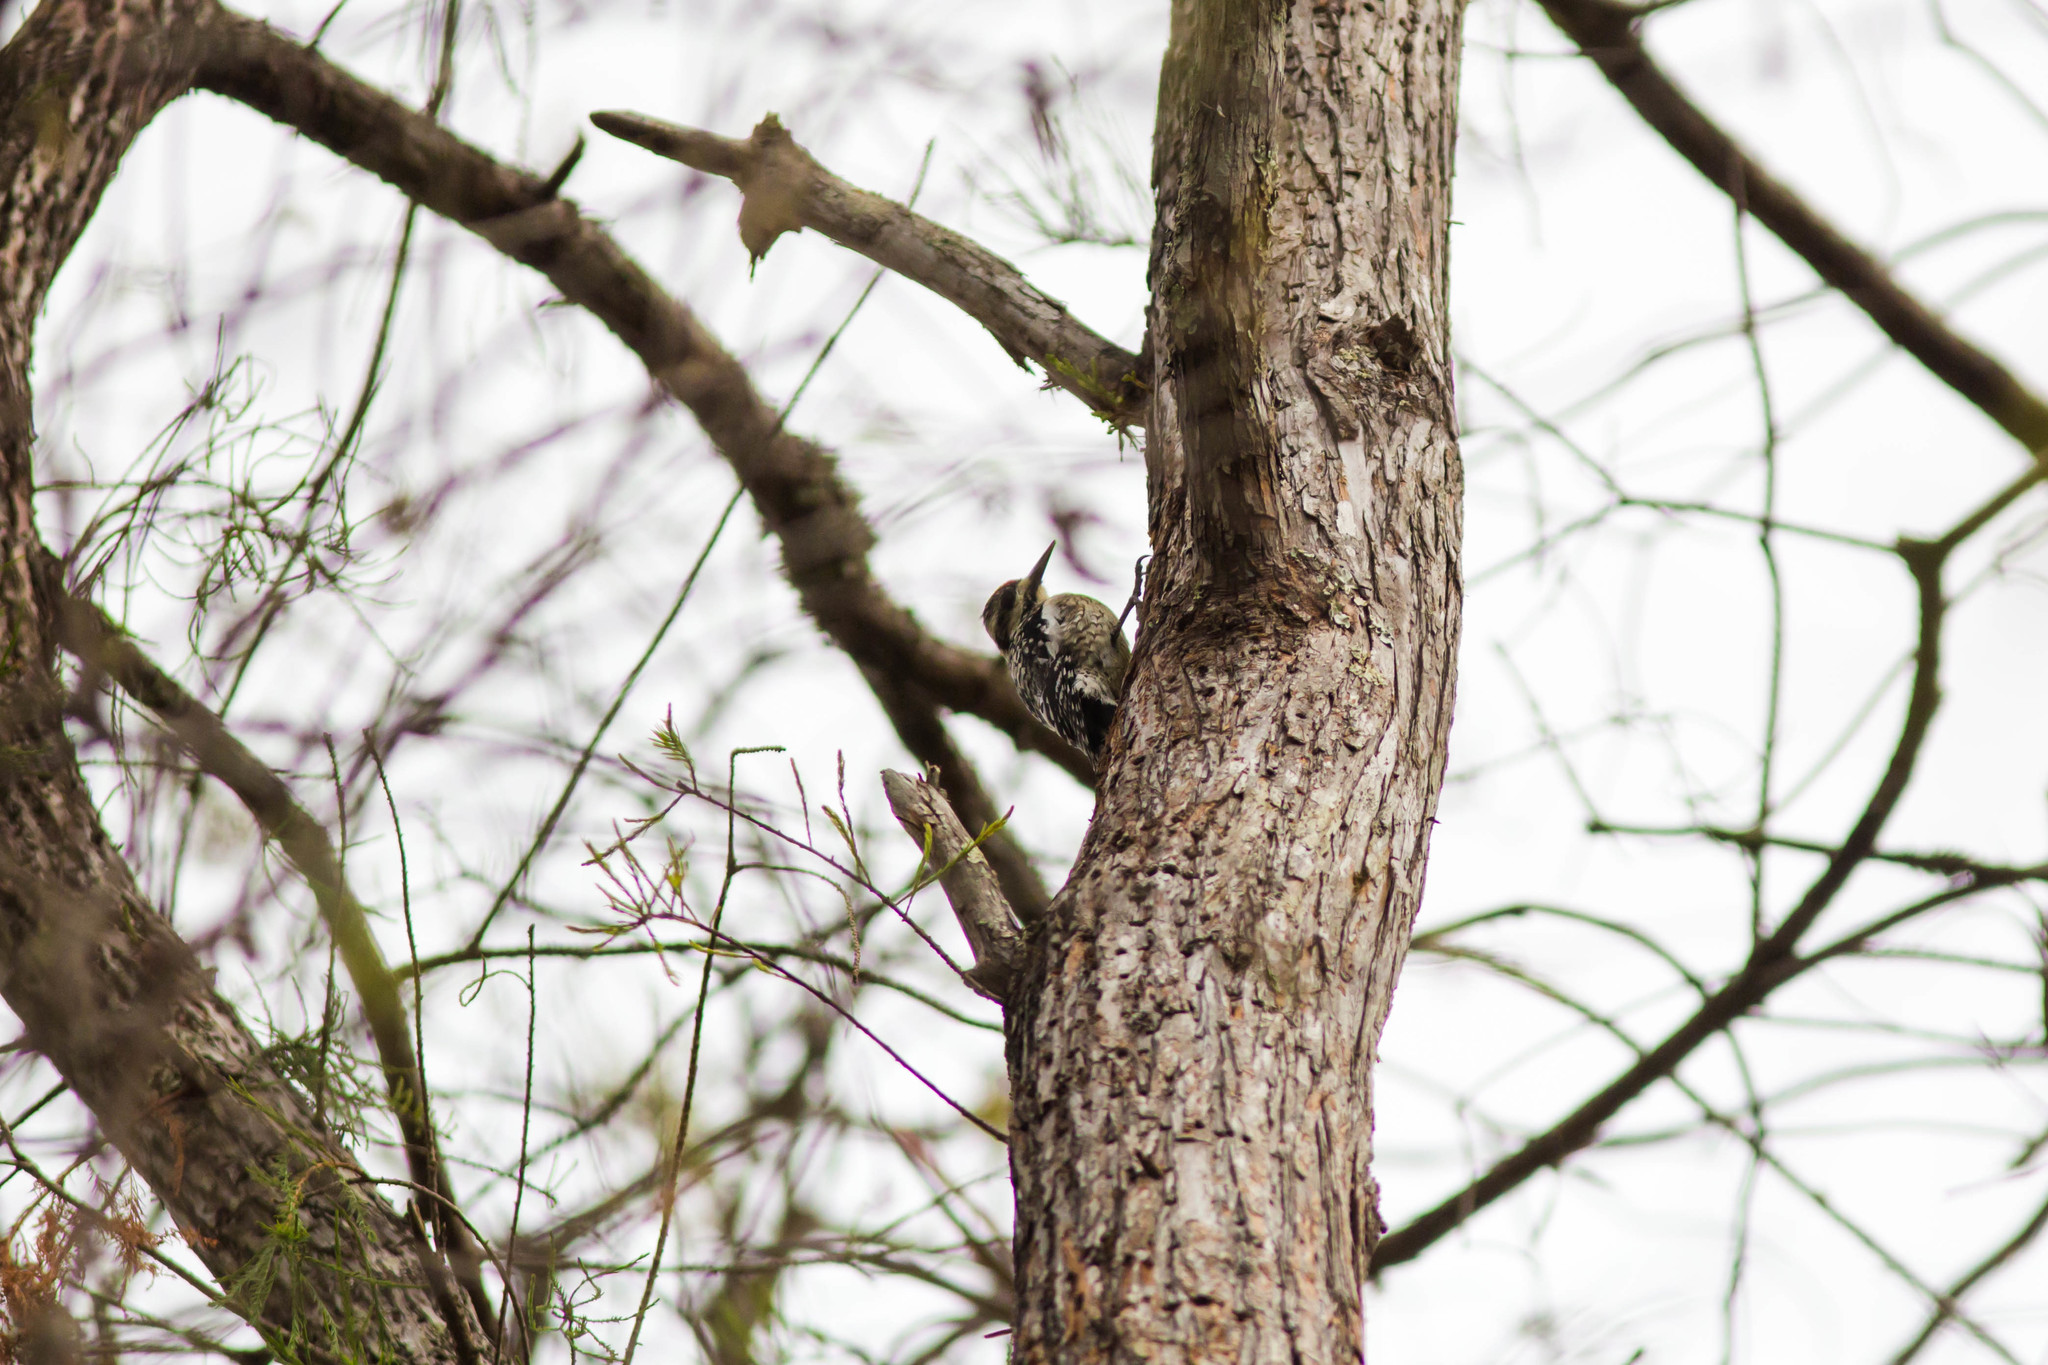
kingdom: Animalia
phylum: Chordata
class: Aves
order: Piciformes
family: Picidae
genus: Sphyrapicus
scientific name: Sphyrapicus varius
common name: Yellow-bellied sapsucker
